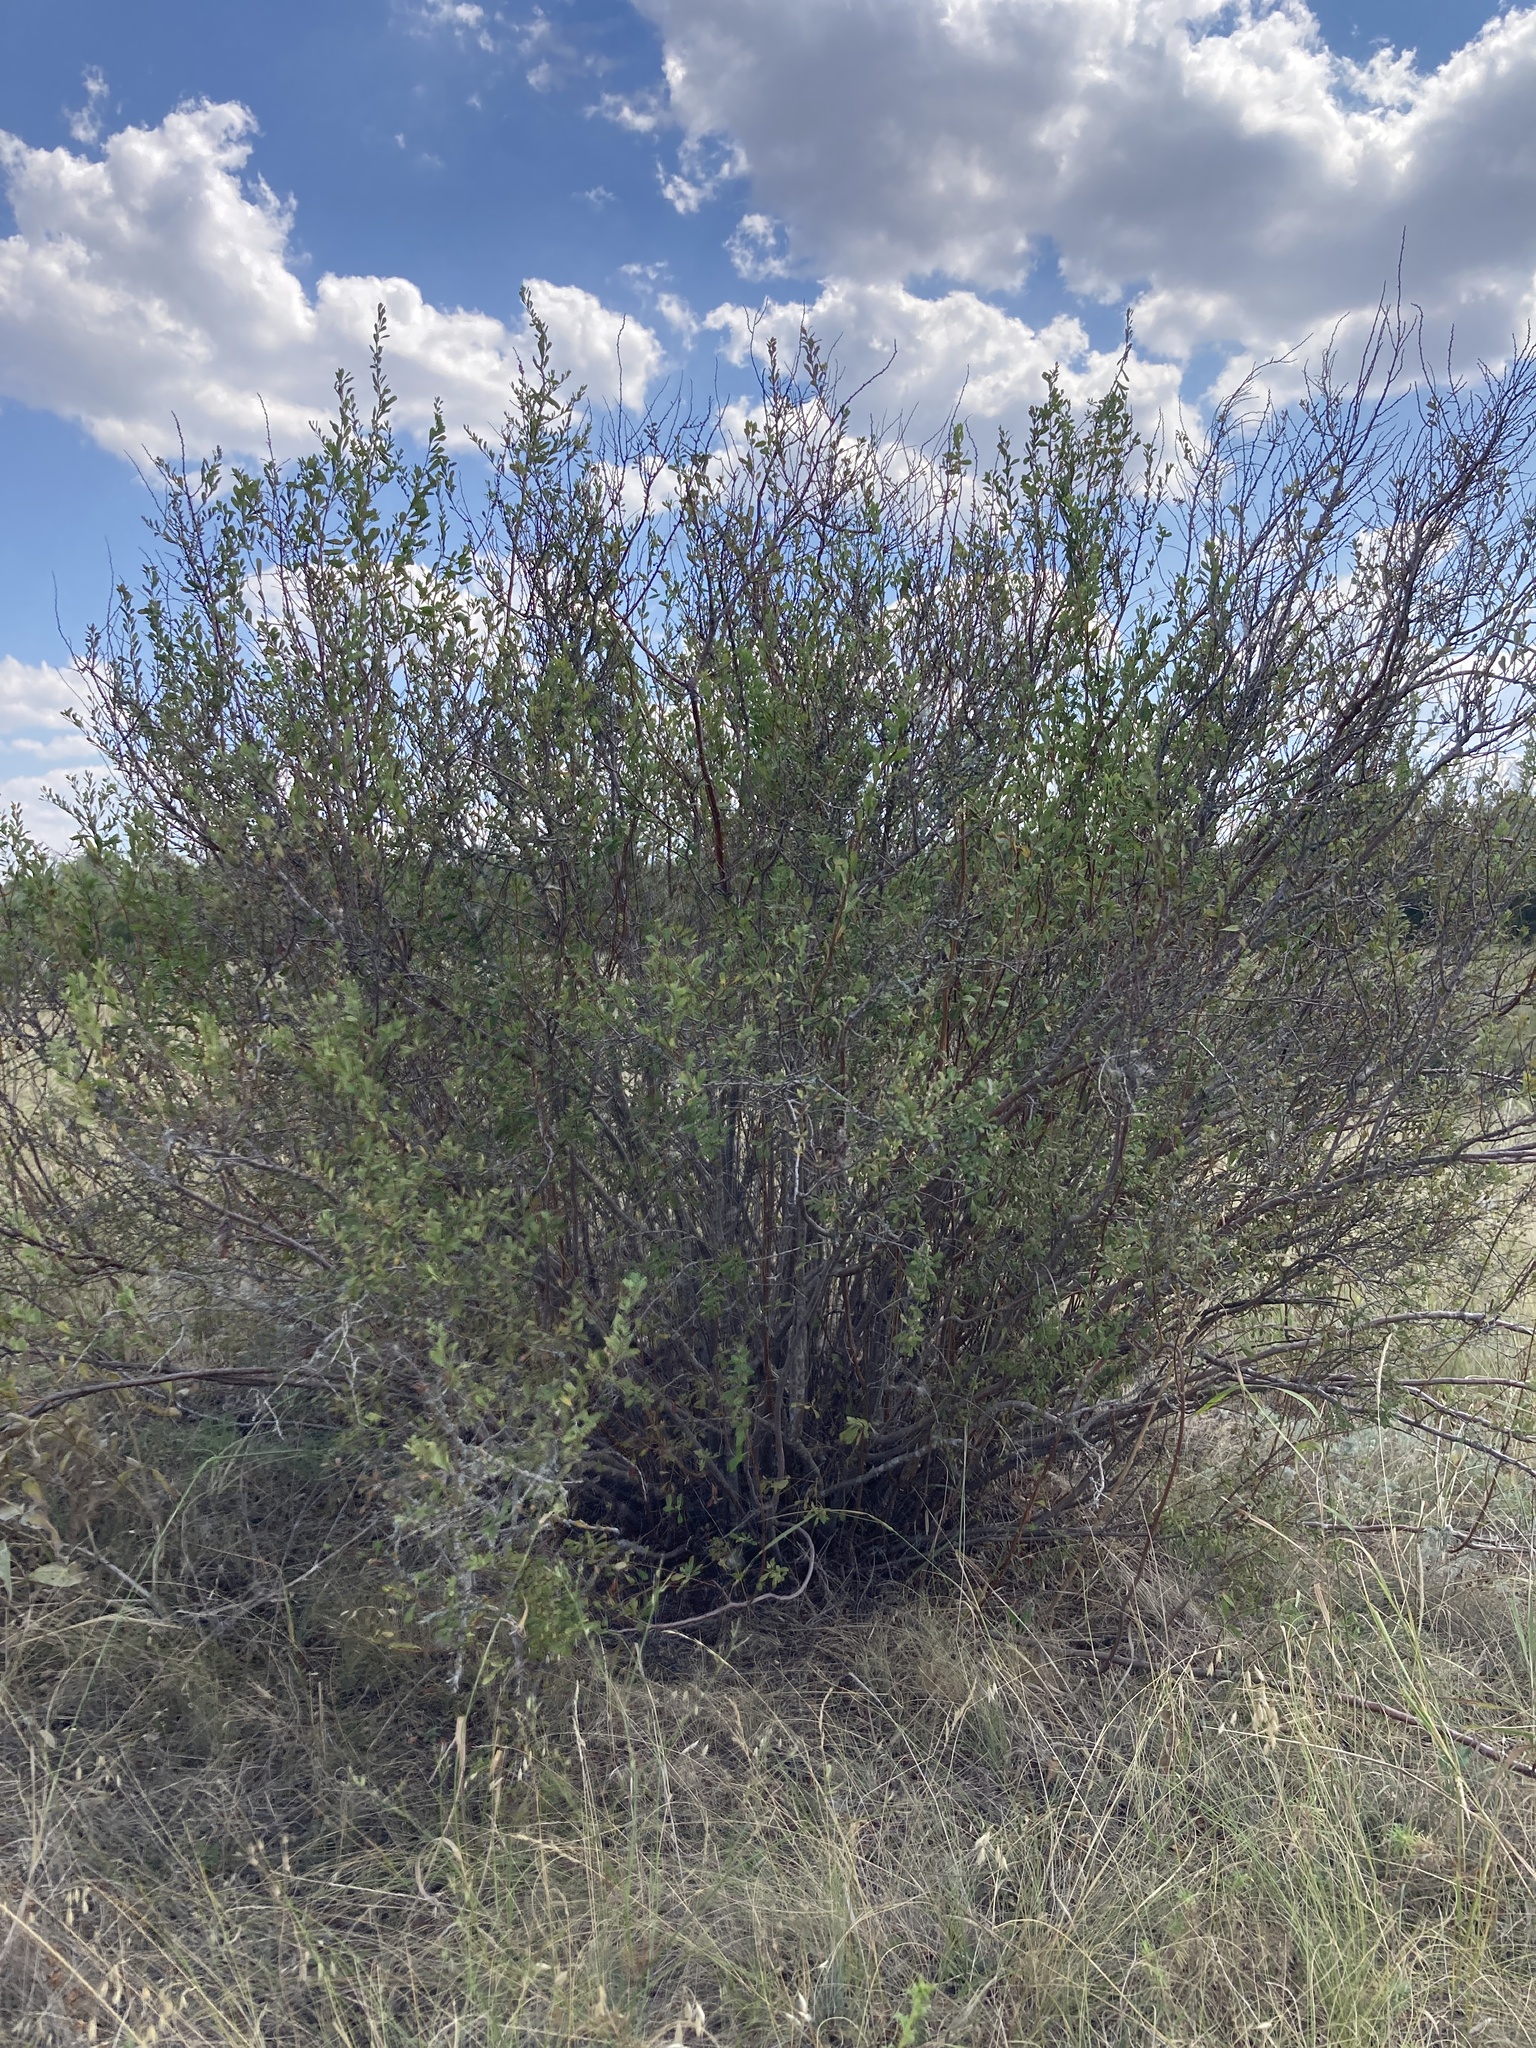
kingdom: Plantae
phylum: Tracheophyta
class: Magnoliopsida
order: Rosales
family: Rosaceae
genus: Spiraea
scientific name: Spiraea crenata
